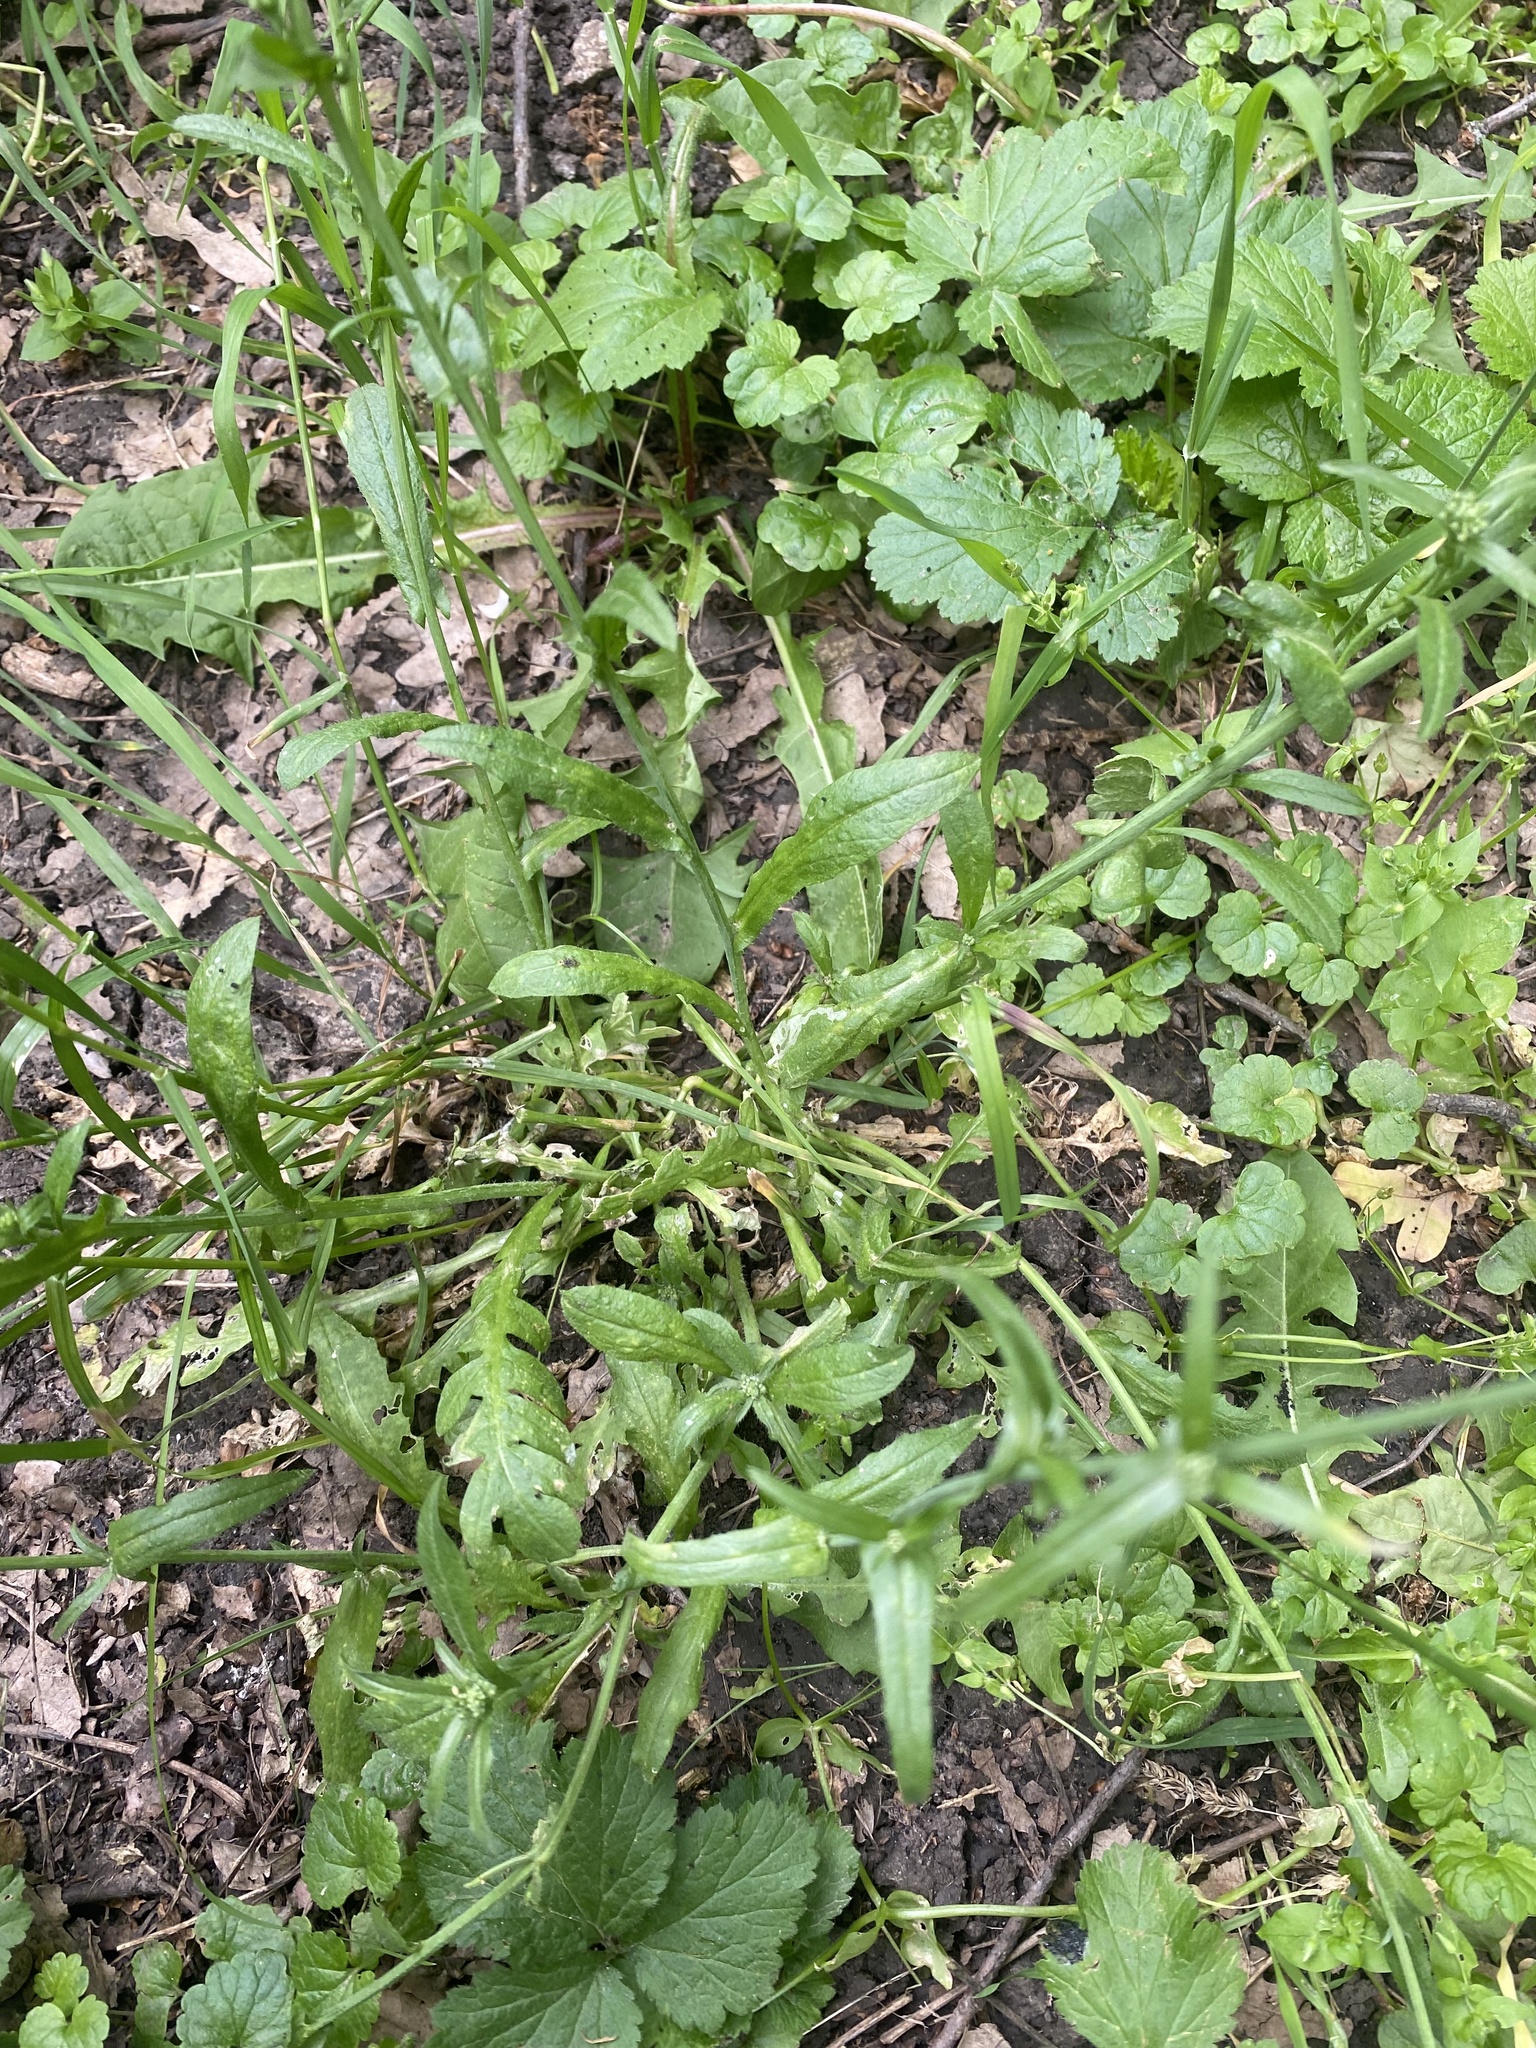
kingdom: Plantae
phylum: Tracheophyta
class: Magnoliopsida
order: Brassicales
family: Brassicaceae
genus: Capsella
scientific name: Capsella bursa-pastoris
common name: Shepherd's purse
